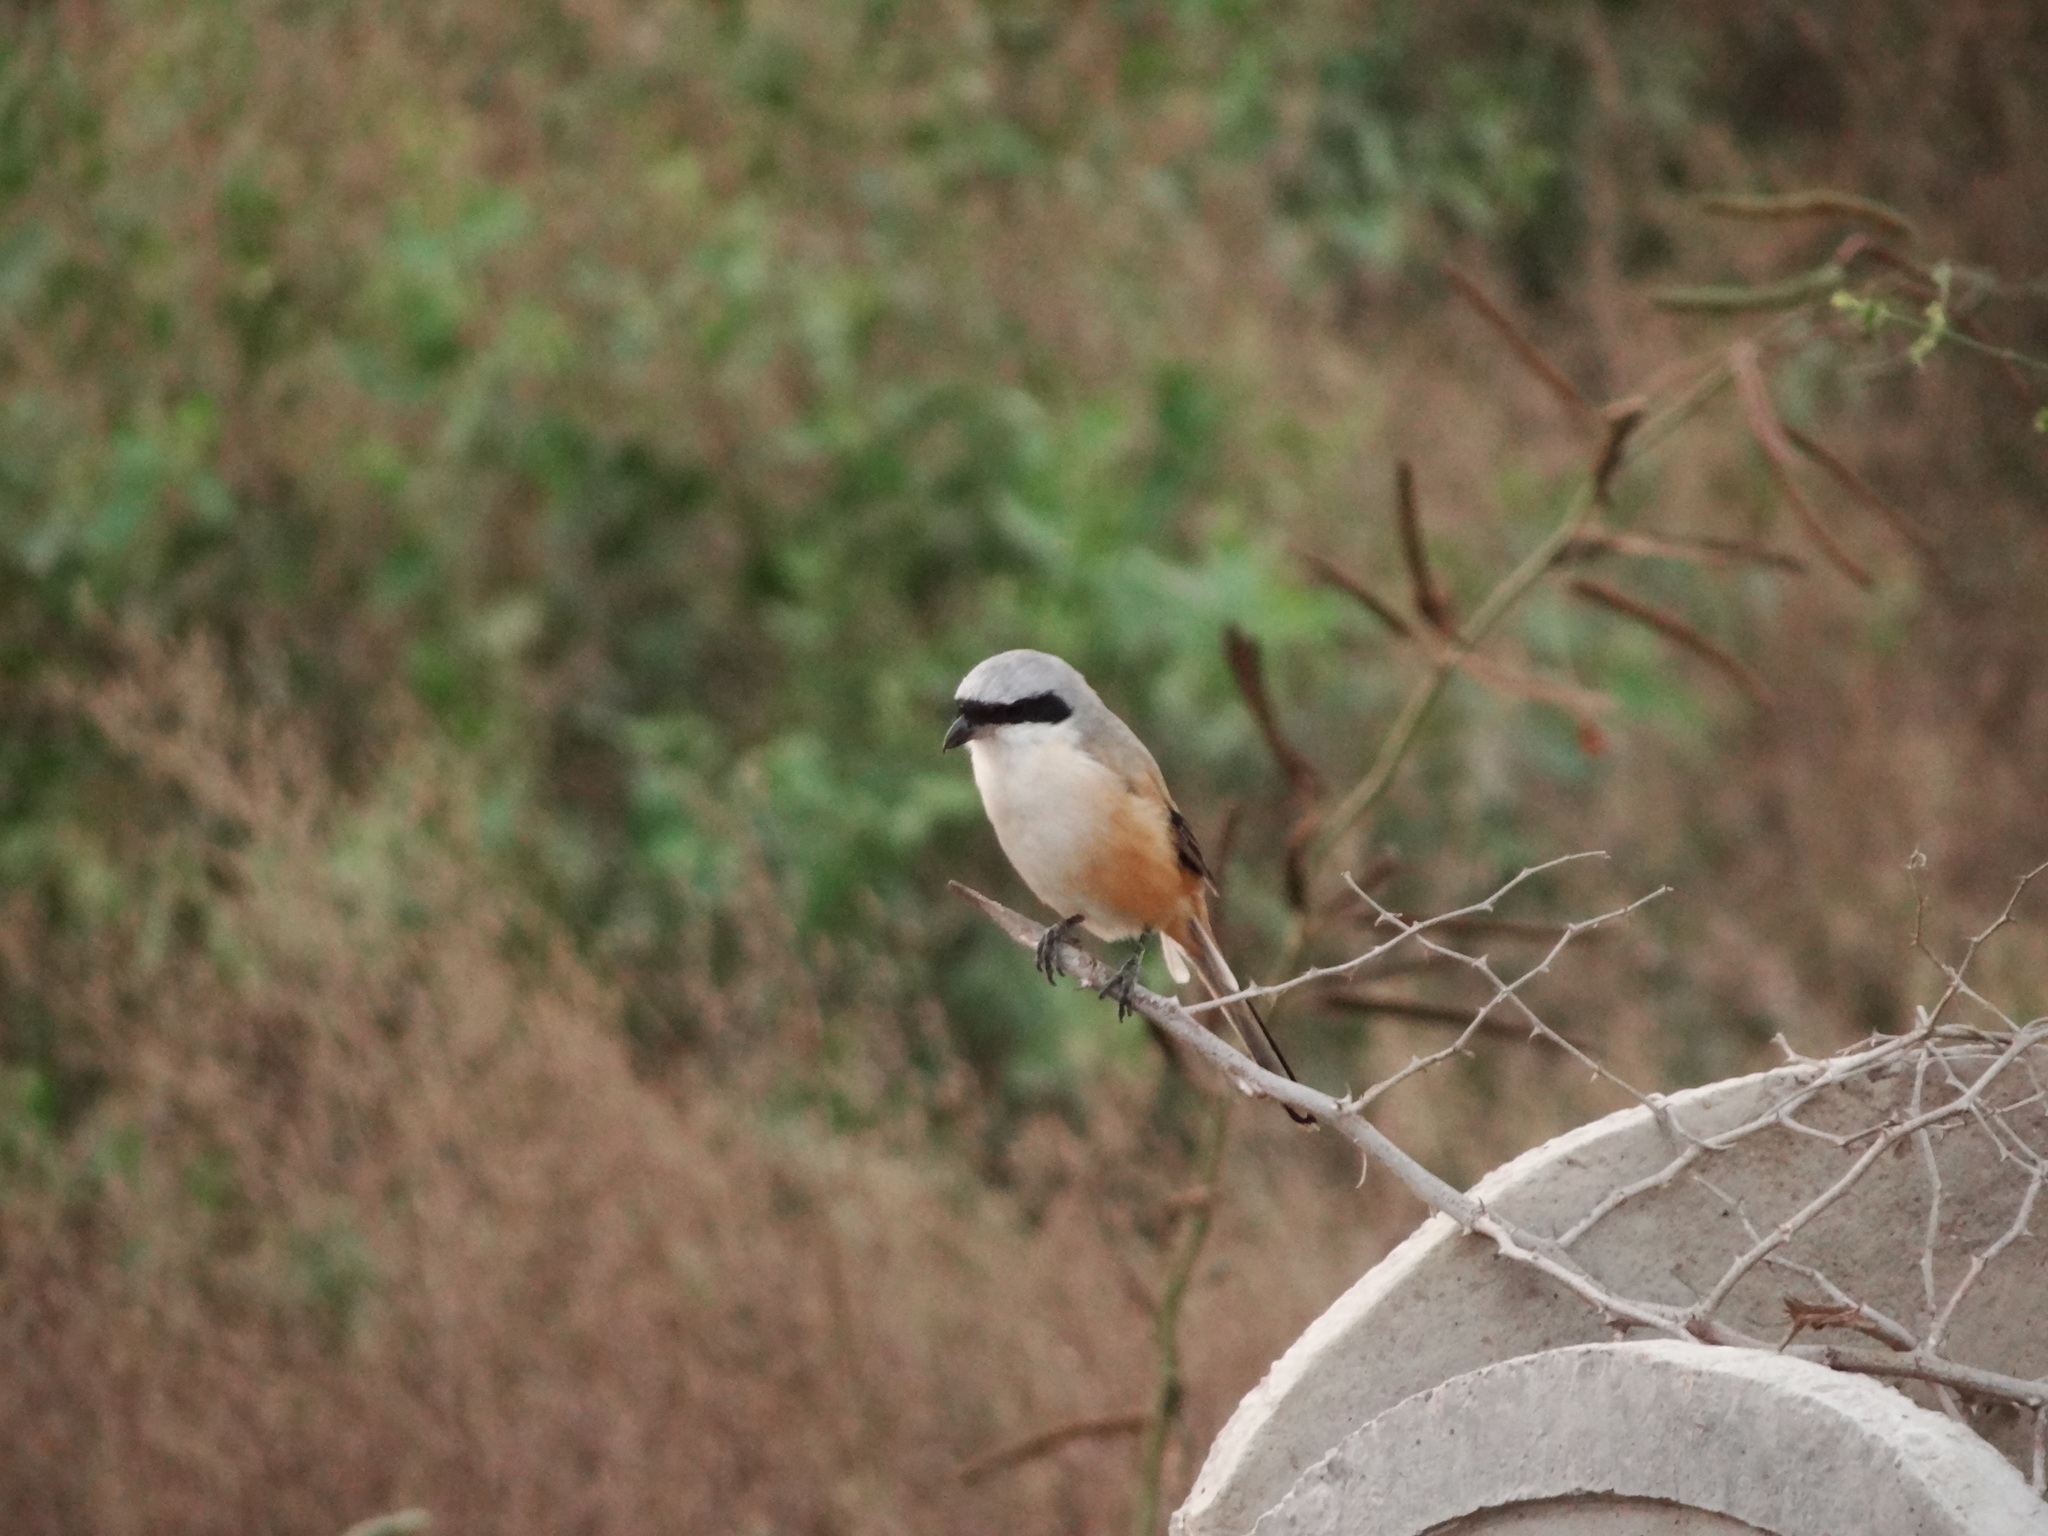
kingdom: Animalia
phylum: Chordata
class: Aves
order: Passeriformes
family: Laniidae
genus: Lanius
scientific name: Lanius schach
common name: Long-tailed shrike
